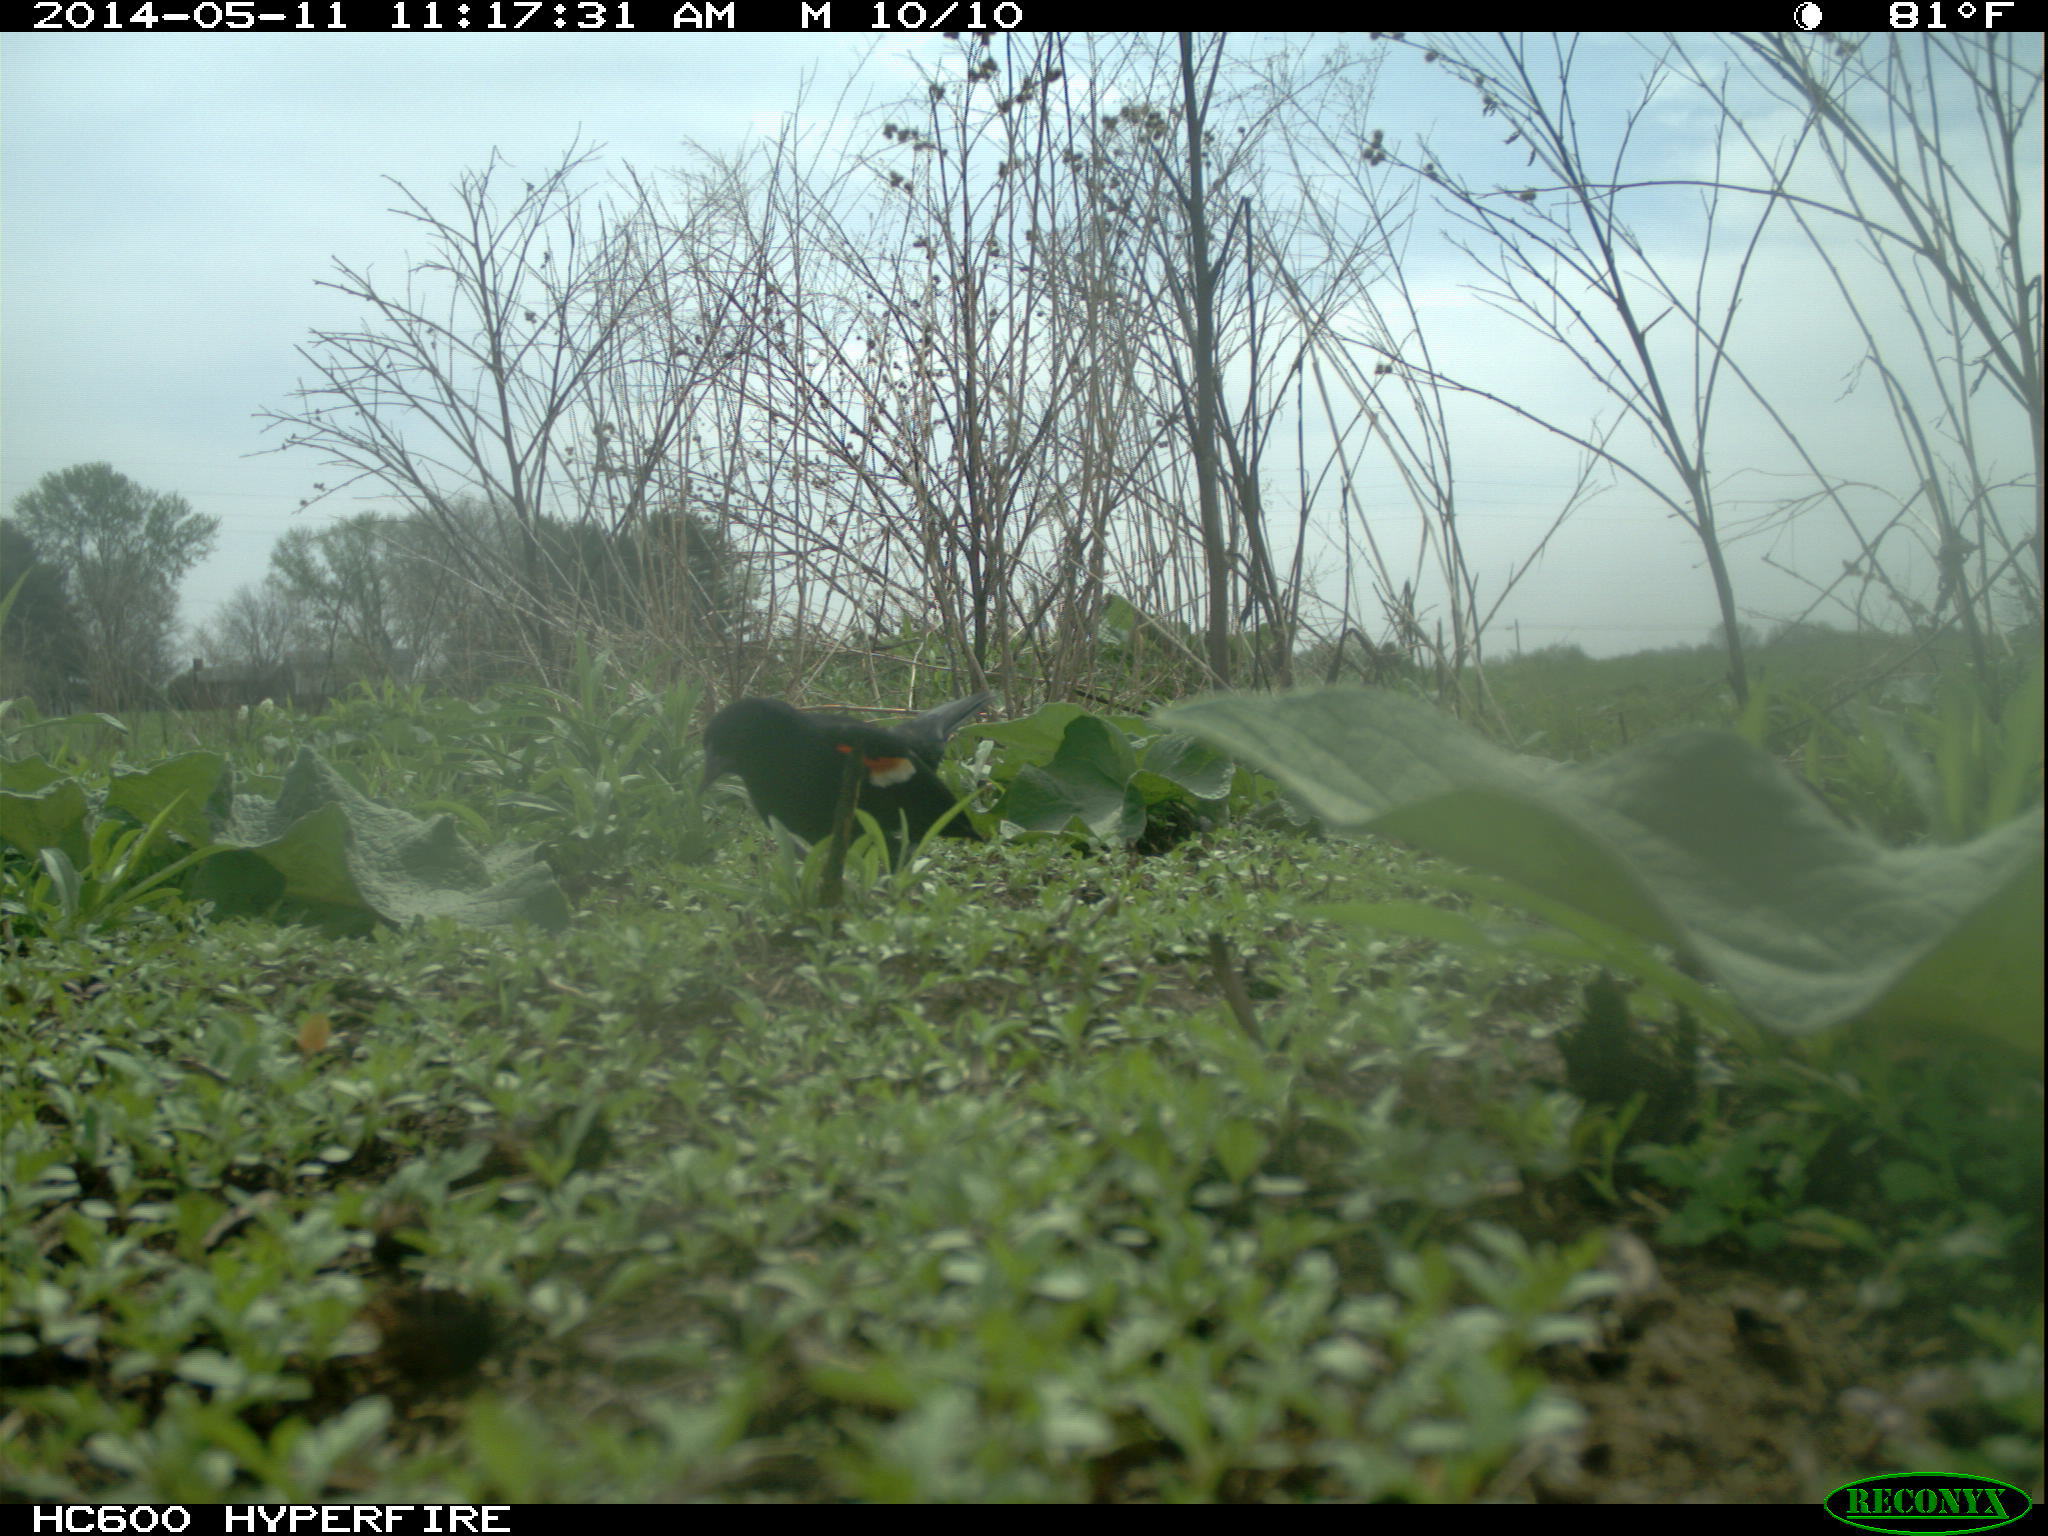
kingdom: Animalia
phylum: Chordata
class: Aves
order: Passeriformes
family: Icteridae
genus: Agelaius
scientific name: Agelaius phoeniceus
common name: Red-winged blackbird
